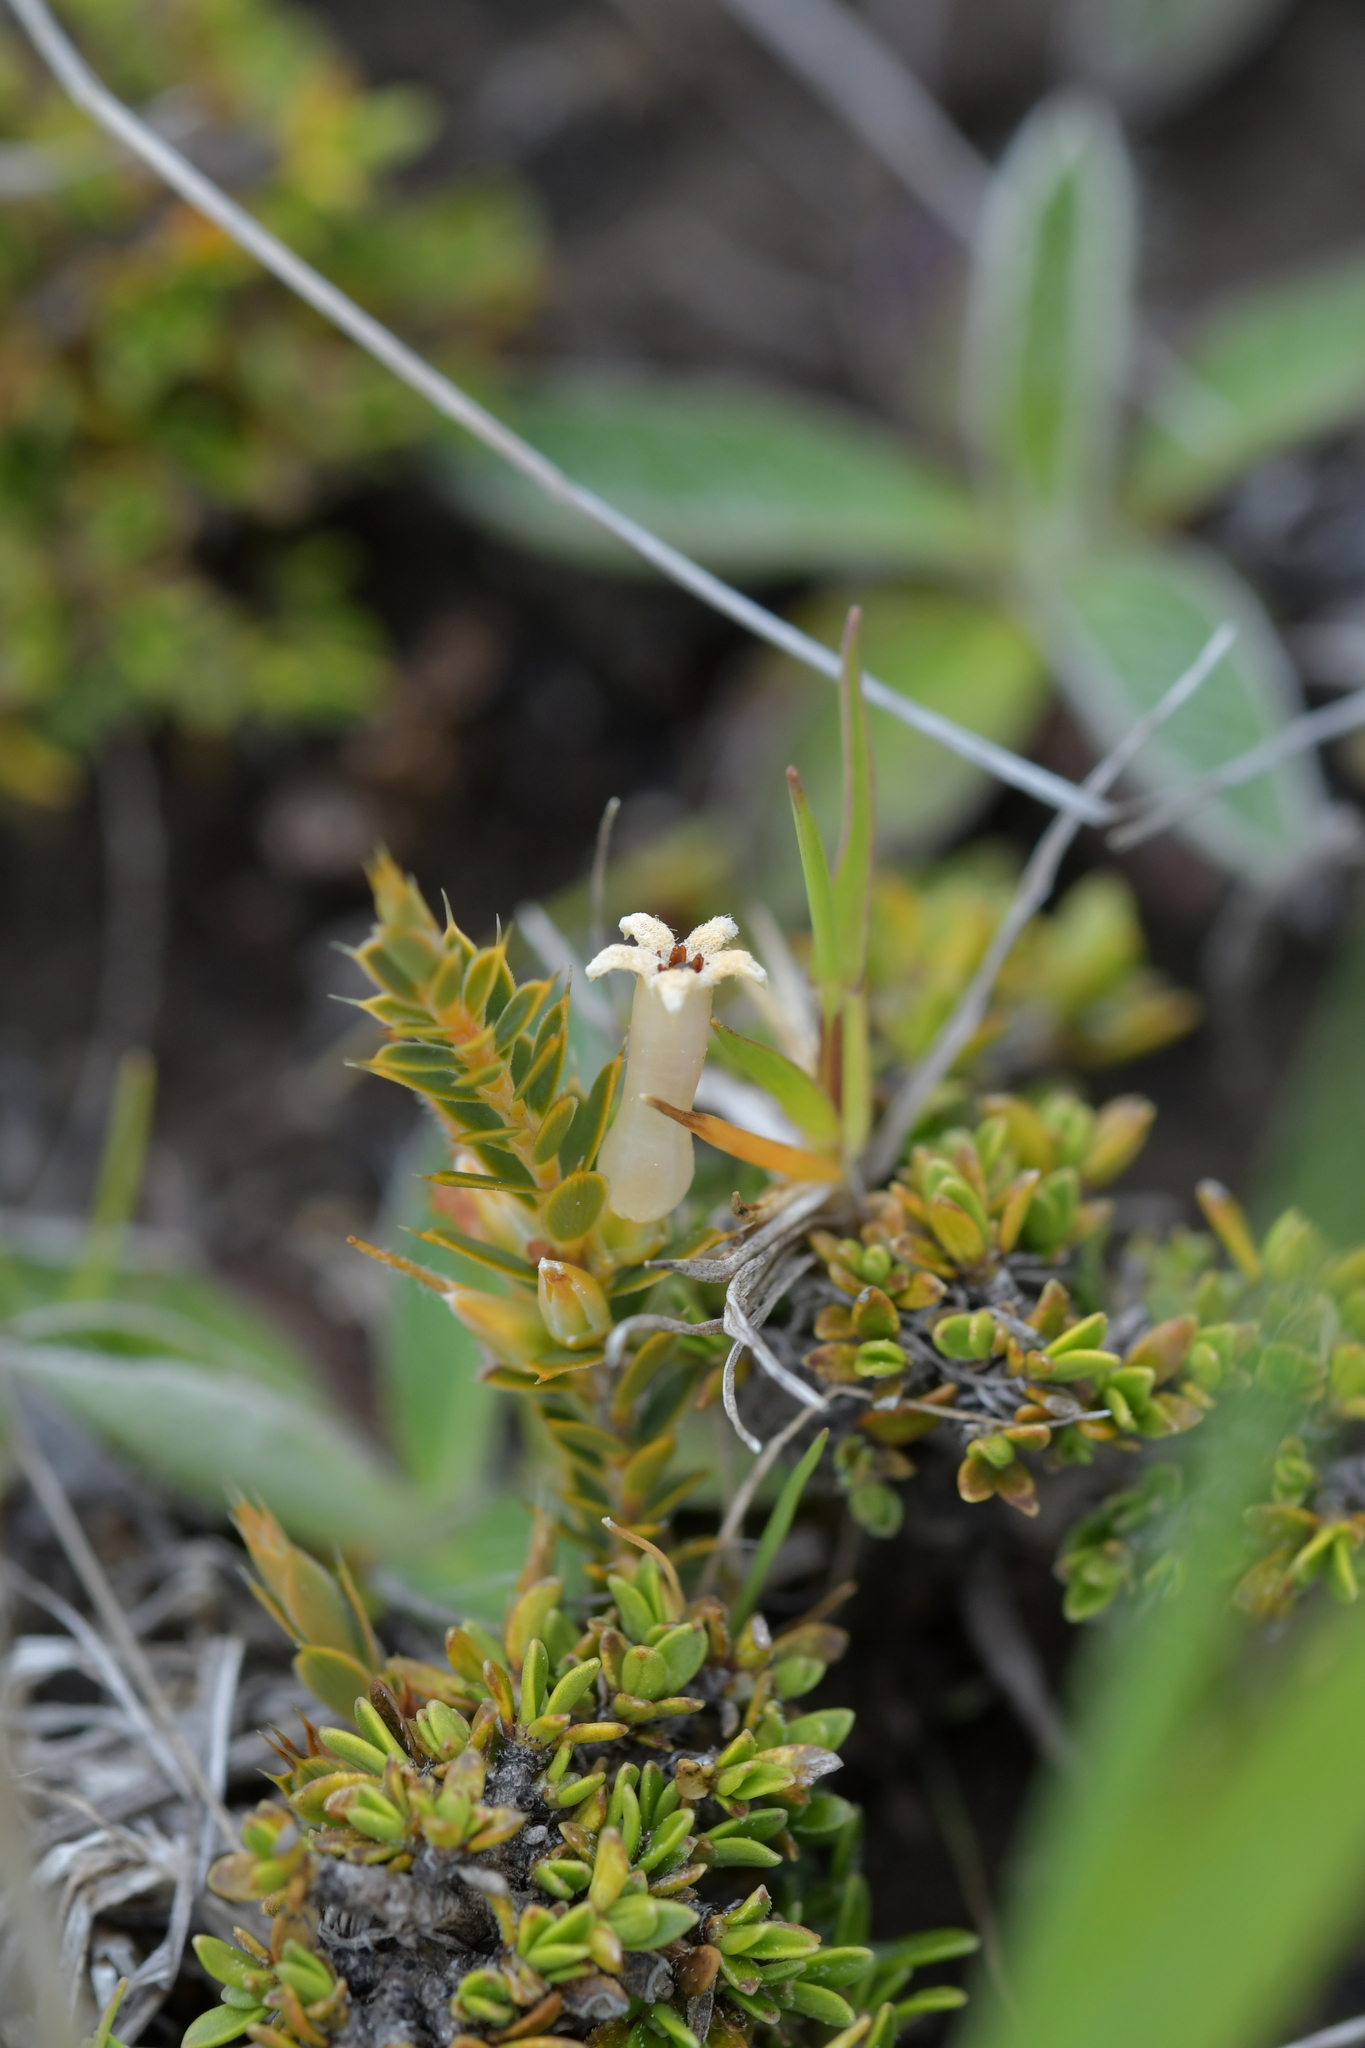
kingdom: Plantae
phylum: Tracheophyta
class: Magnoliopsida
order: Ericales
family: Ericaceae
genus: Styphelia
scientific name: Styphelia nesophila
